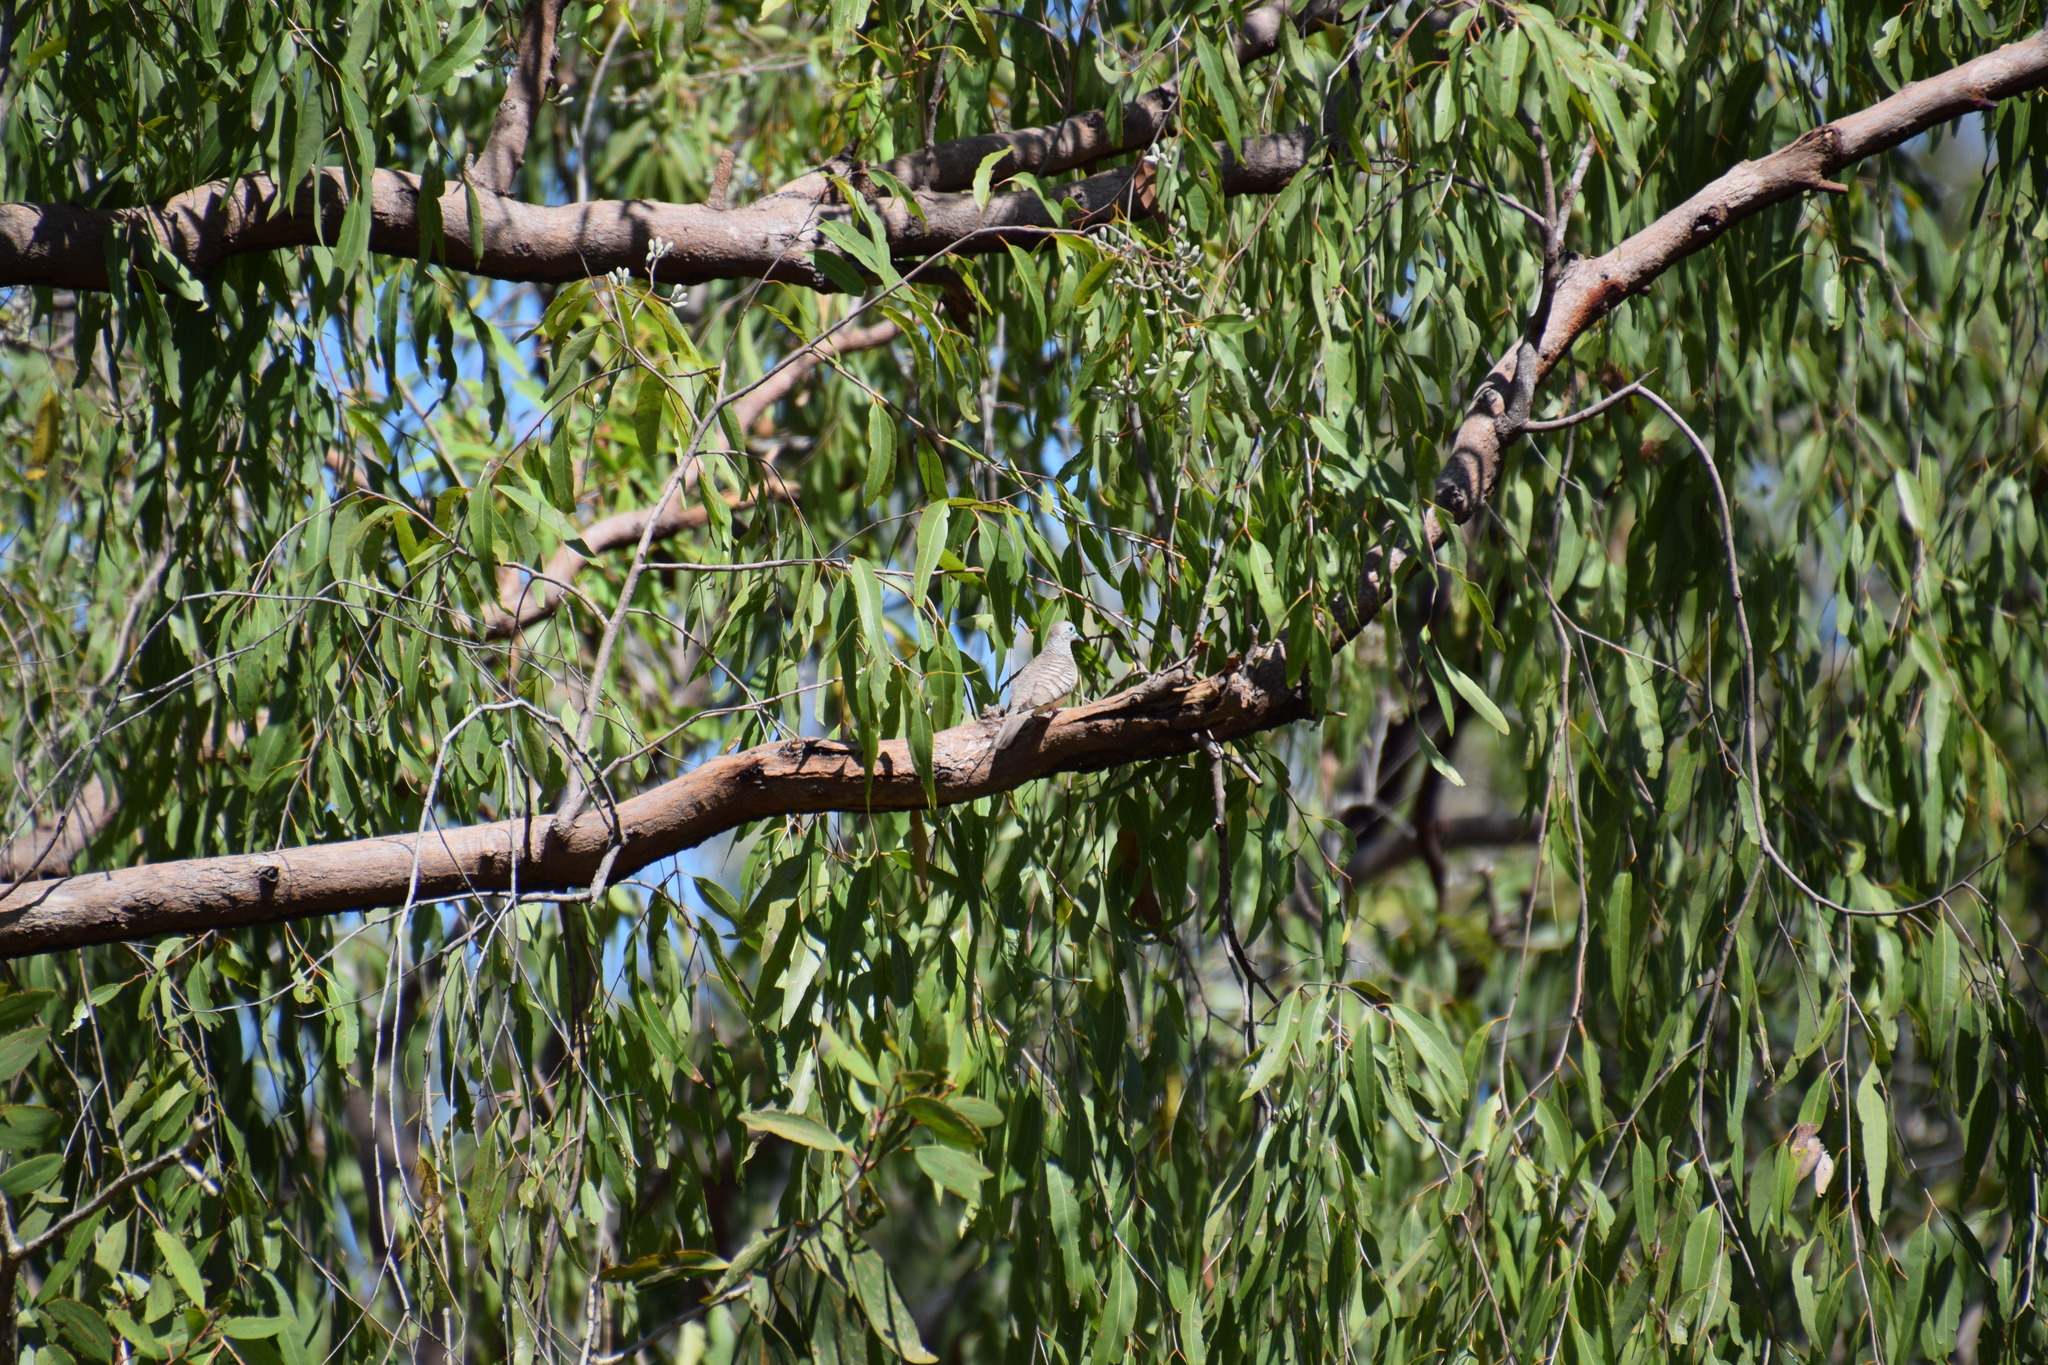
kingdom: Animalia
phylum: Chordata
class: Aves
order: Columbiformes
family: Columbidae
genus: Geopelia
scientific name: Geopelia placida
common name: Peaceful dove
